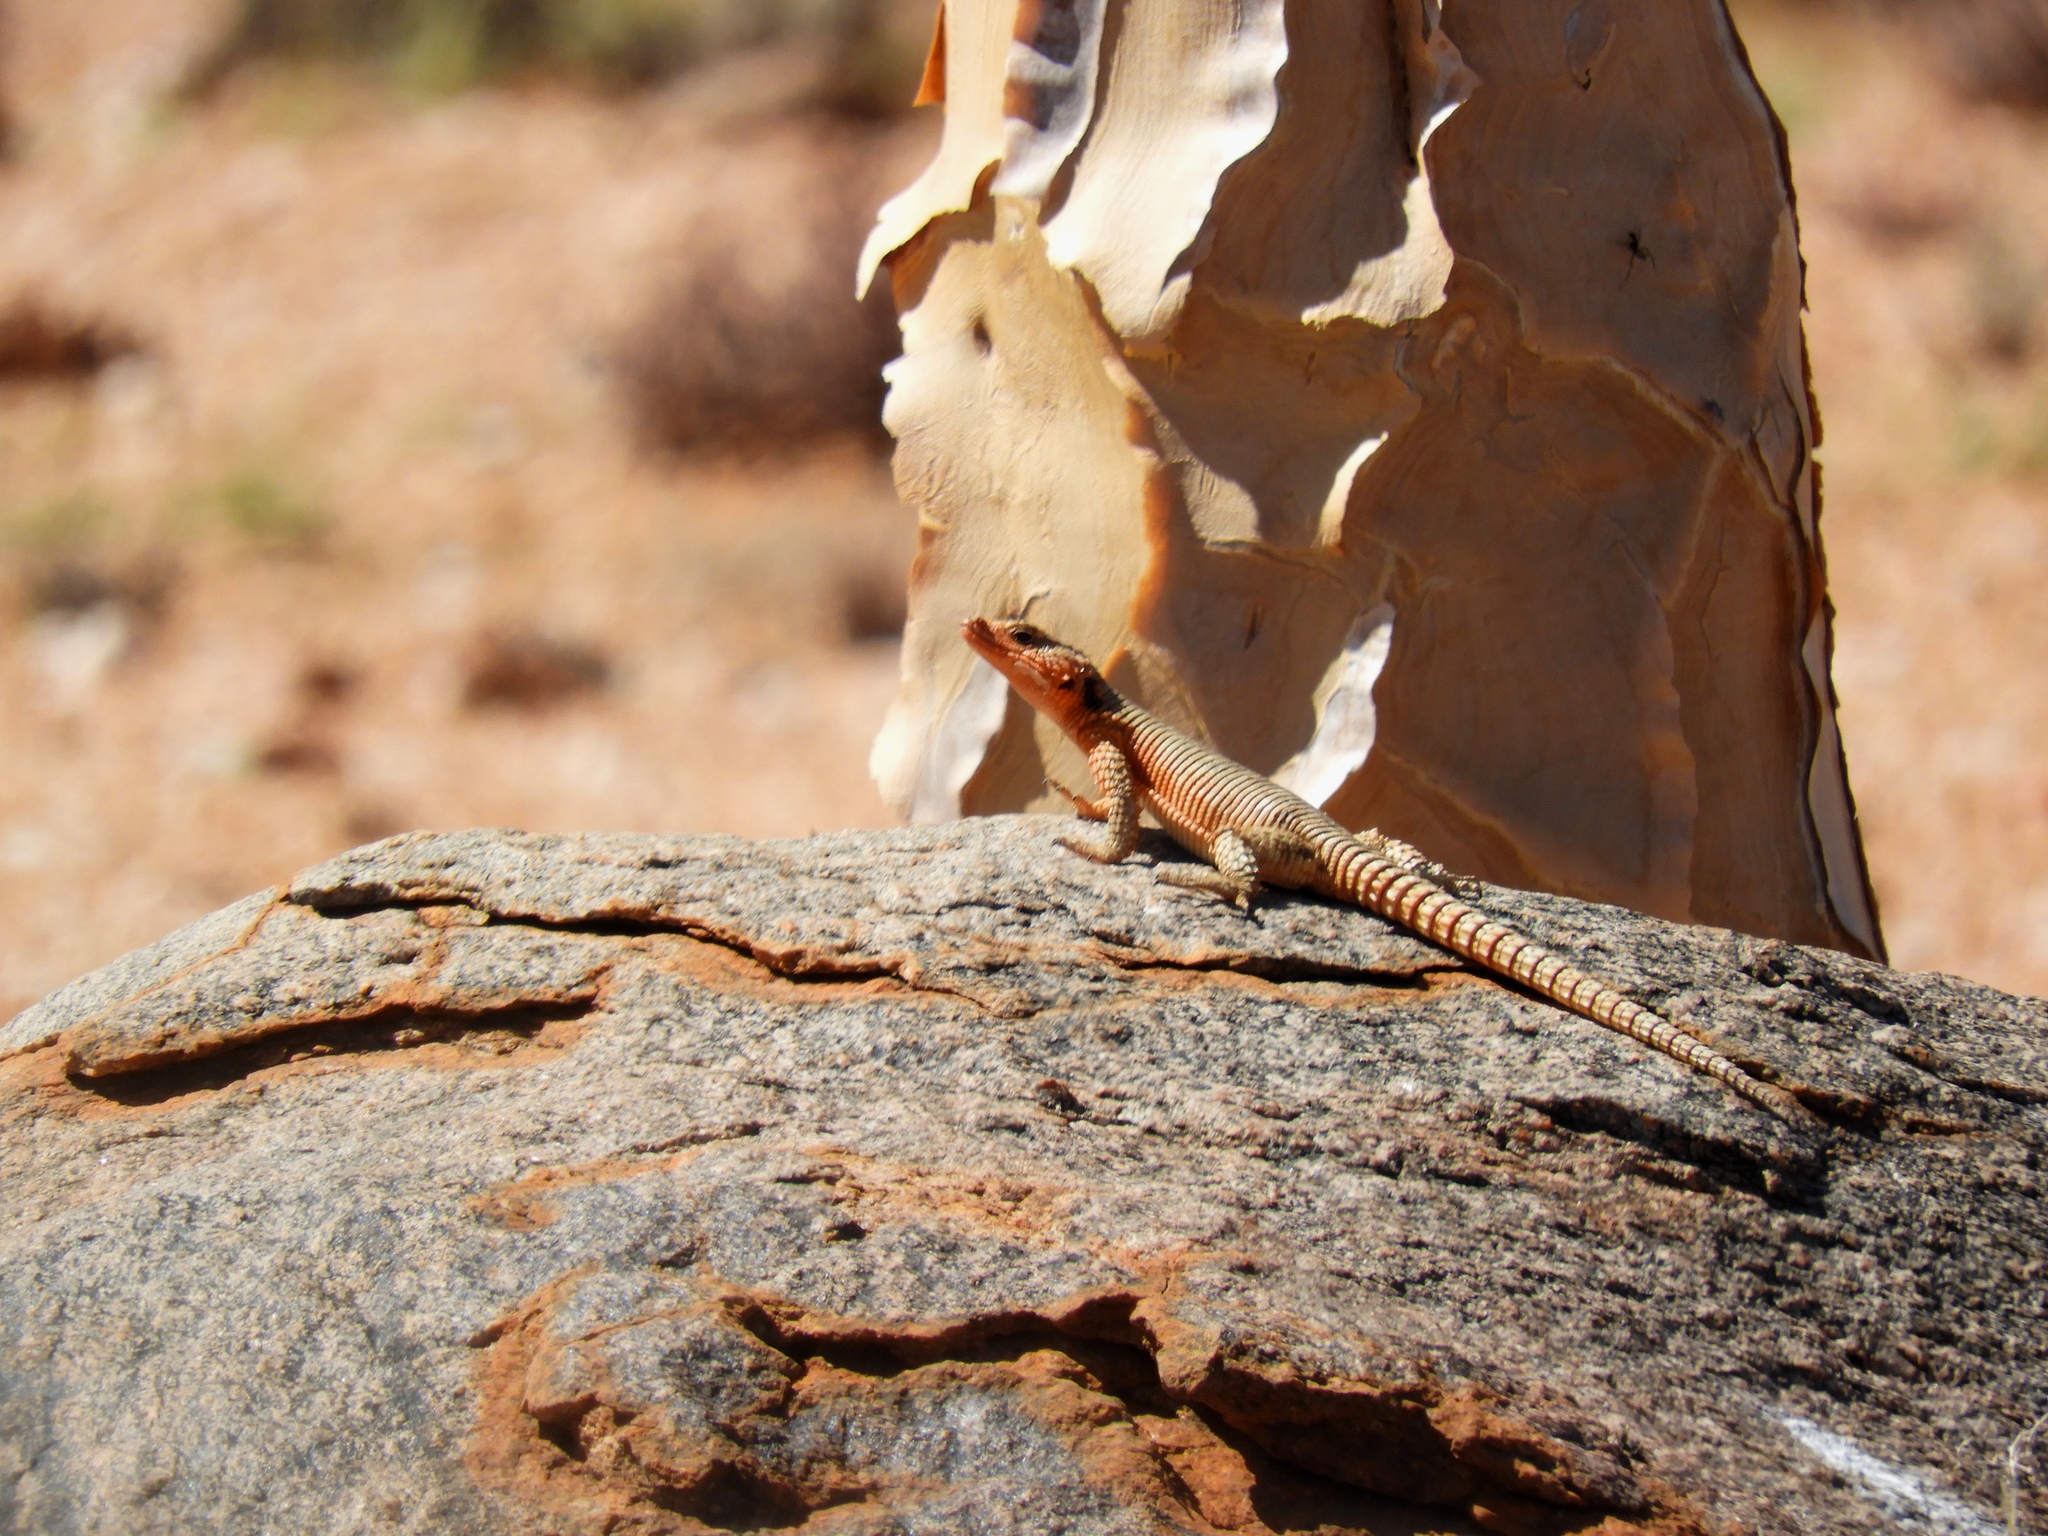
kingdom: Animalia
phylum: Chordata
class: Squamata
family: Cordylidae
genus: Karusasaurus
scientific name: Karusasaurus polyzonus
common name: Karoo girdled lizard
